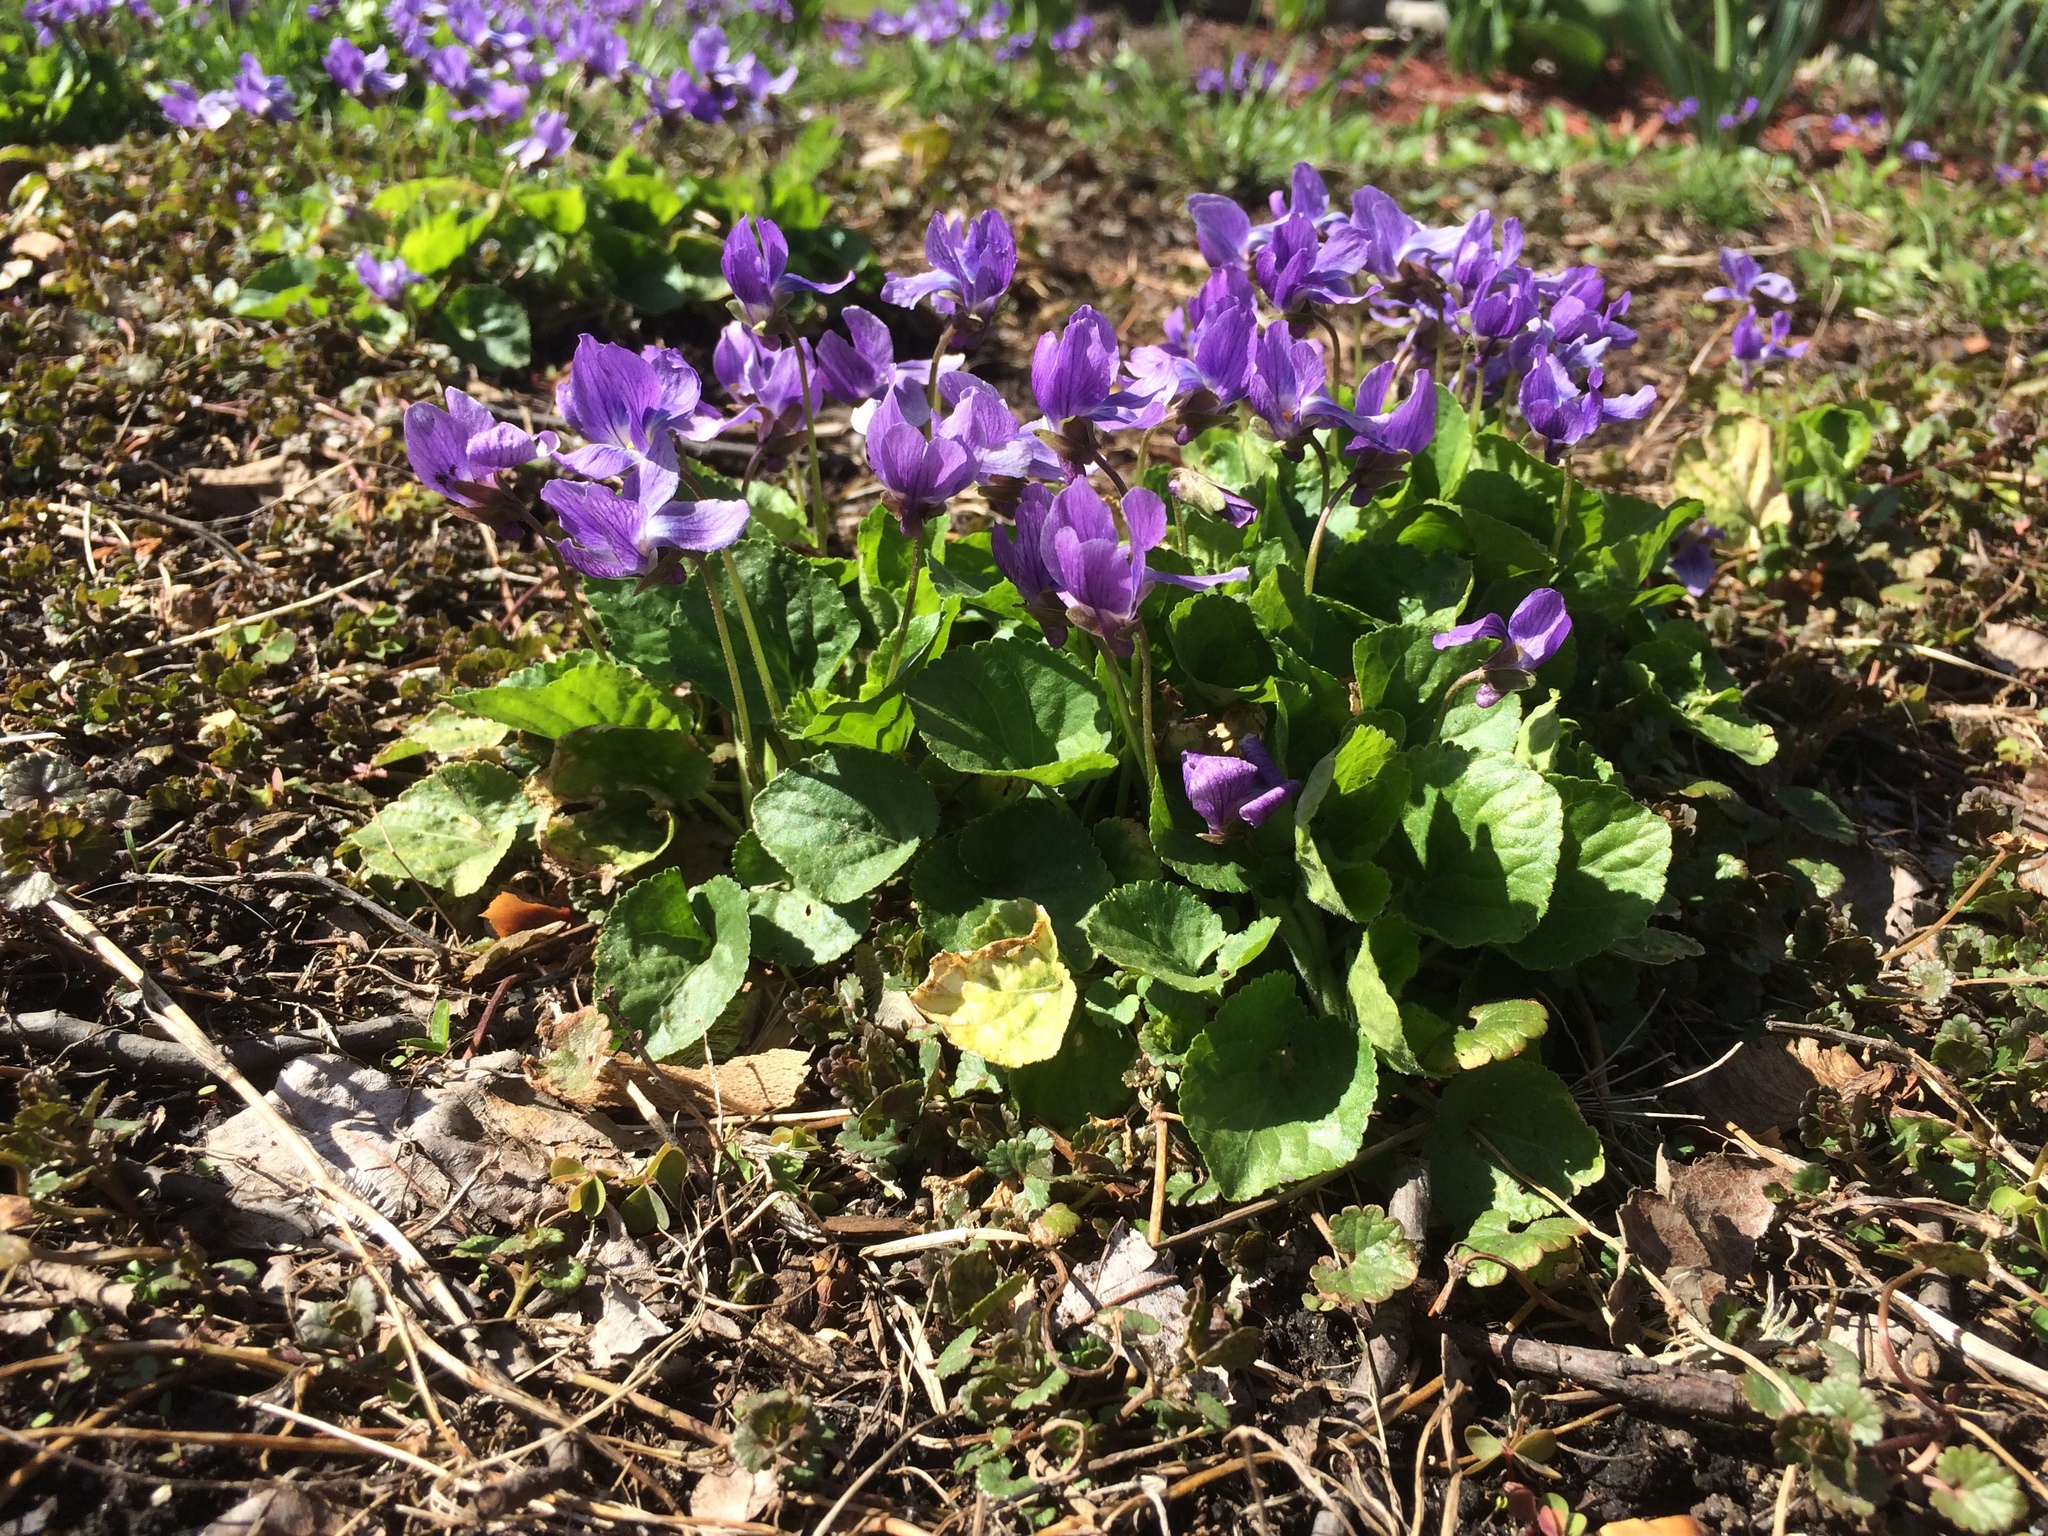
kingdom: Plantae
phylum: Tracheophyta
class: Magnoliopsida
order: Malpighiales
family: Violaceae
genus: Viola
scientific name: Viola odorata
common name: Sweet violet
